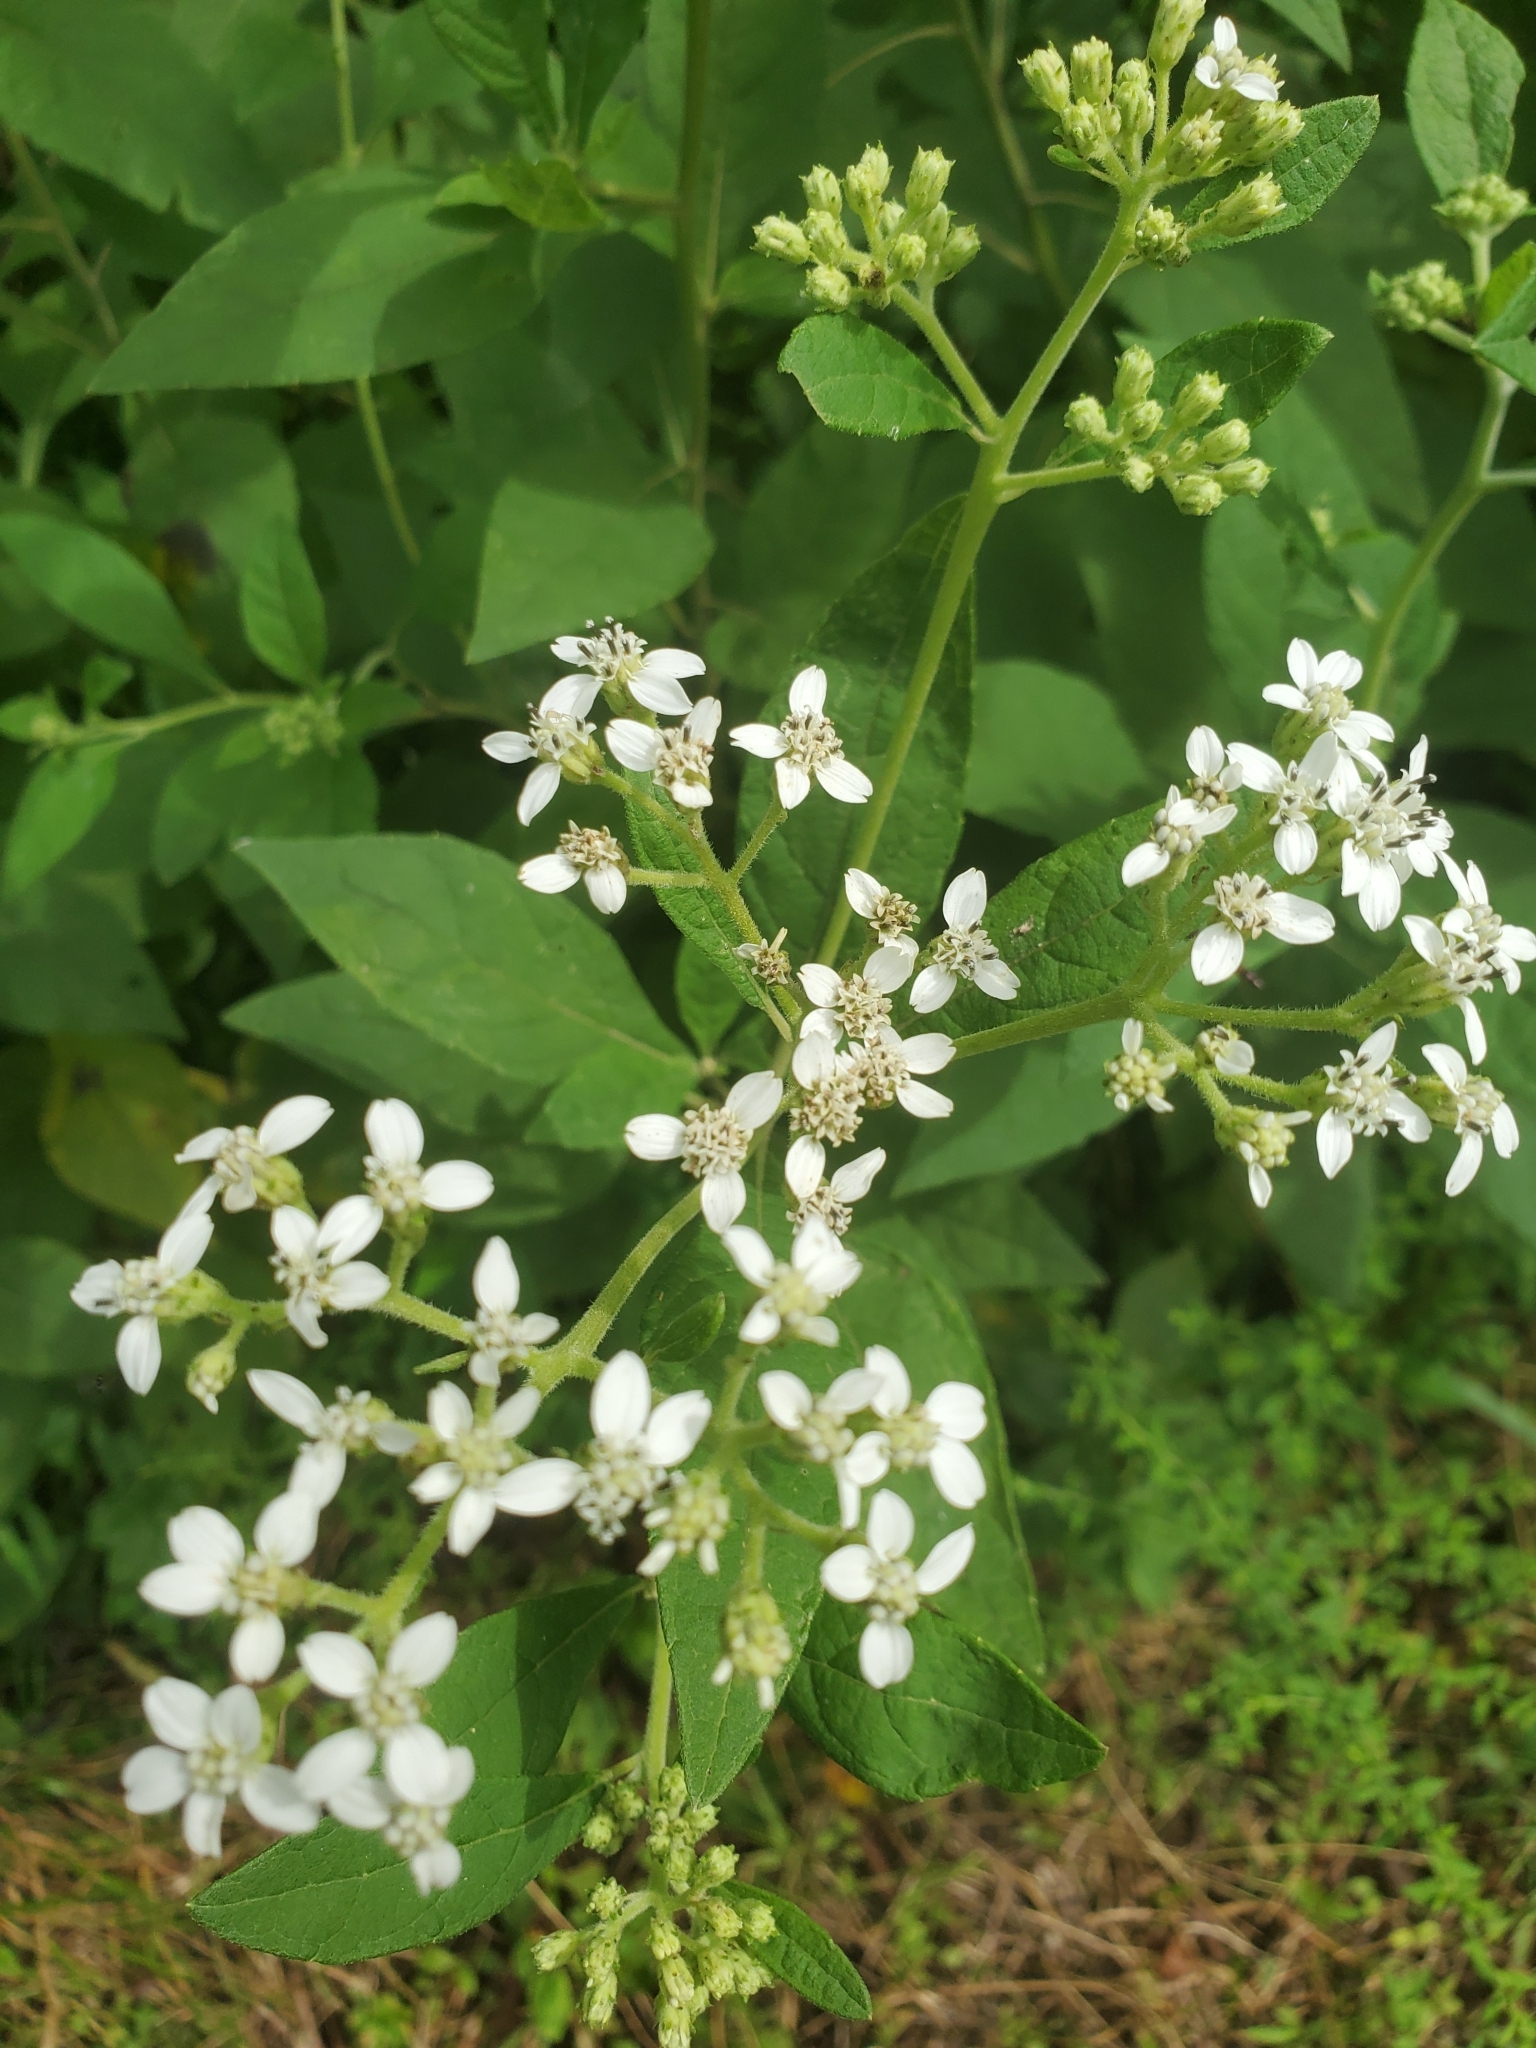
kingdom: Plantae
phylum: Tracheophyta
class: Magnoliopsida
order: Asterales
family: Asteraceae
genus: Verbesina
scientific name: Verbesina virginica
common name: Frostweed
